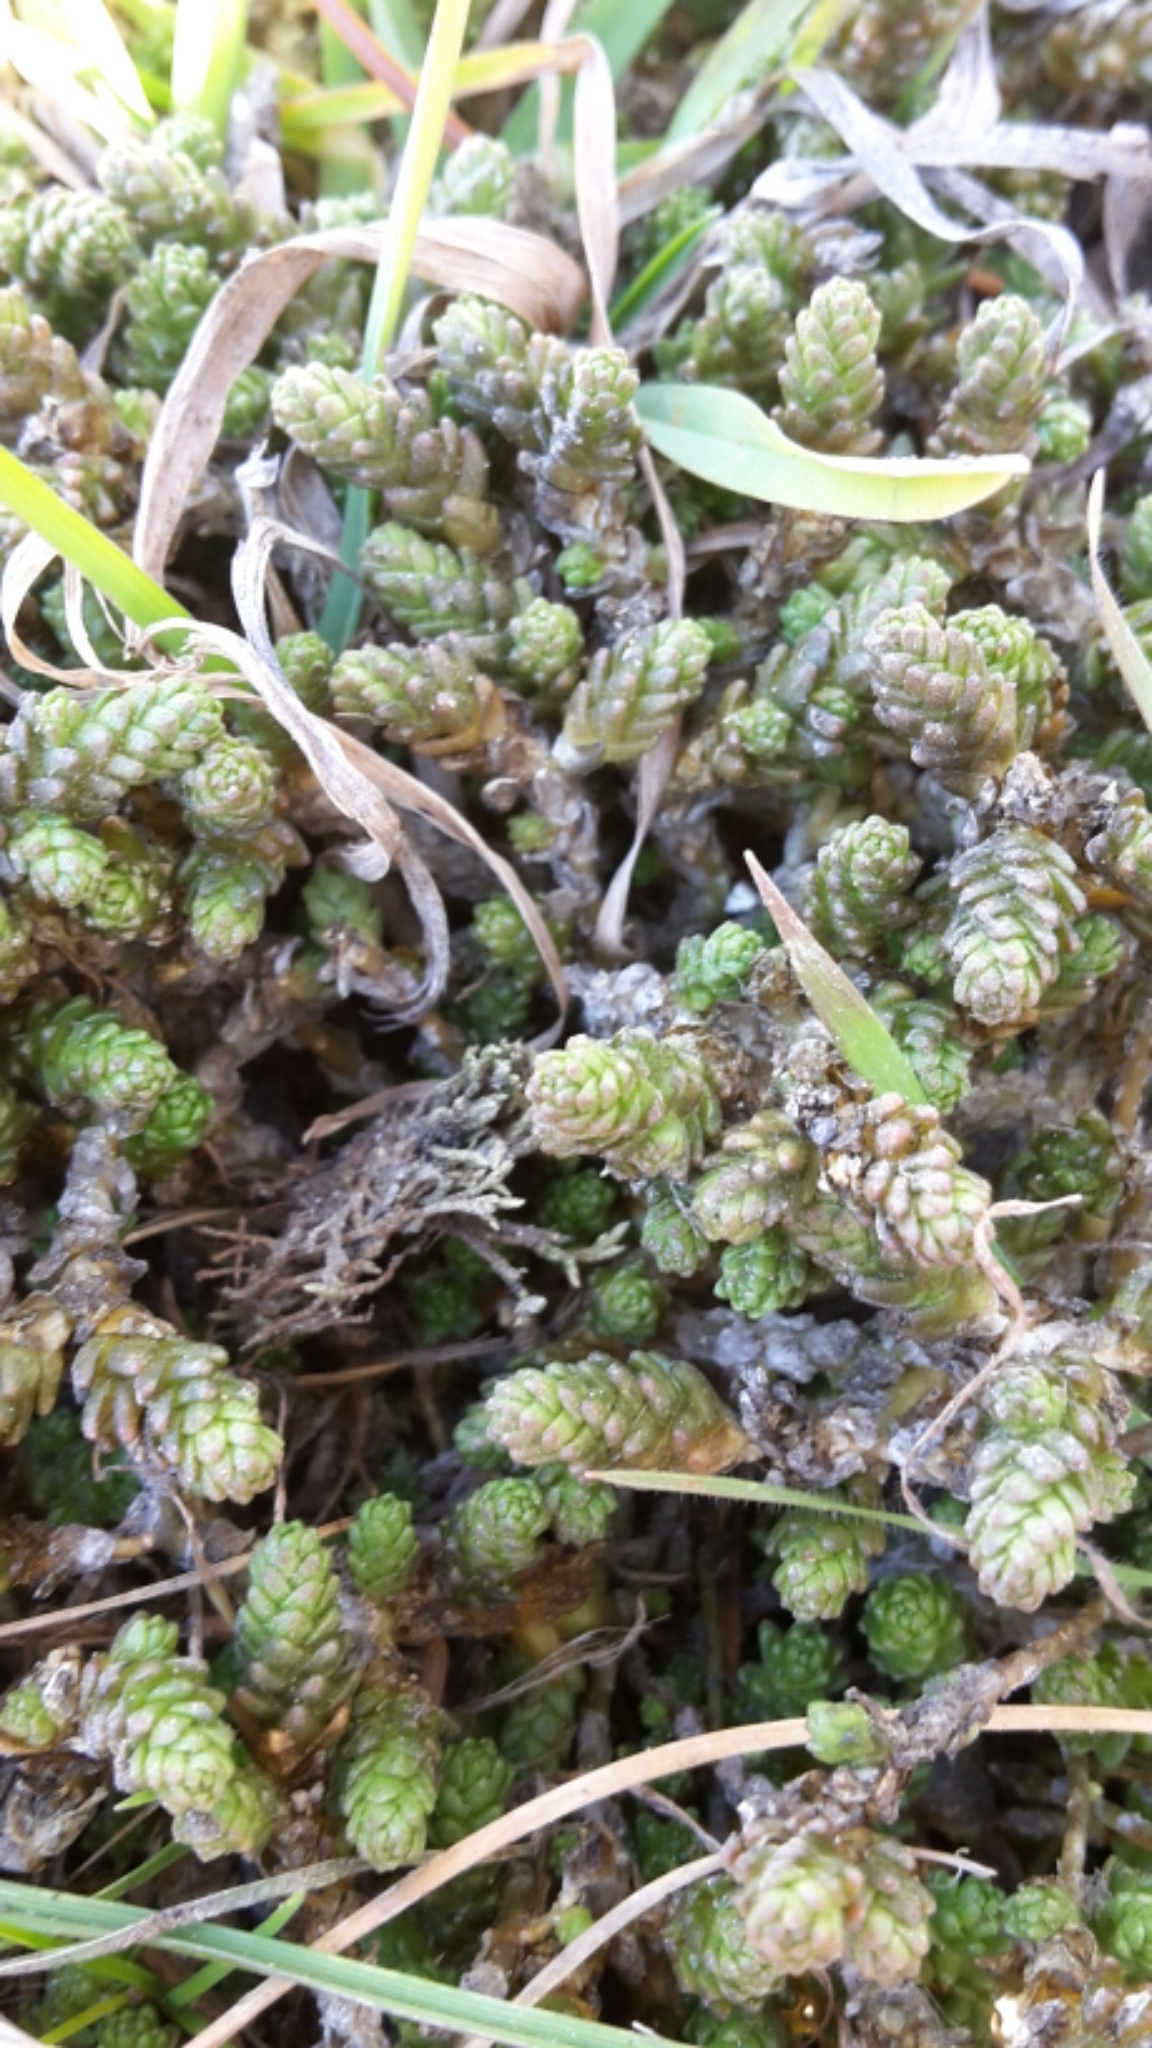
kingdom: Plantae
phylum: Tracheophyta
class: Magnoliopsida
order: Saxifragales
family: Crassulaceae
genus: Sedum
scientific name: Sedum acre
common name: Biting stonecrop
